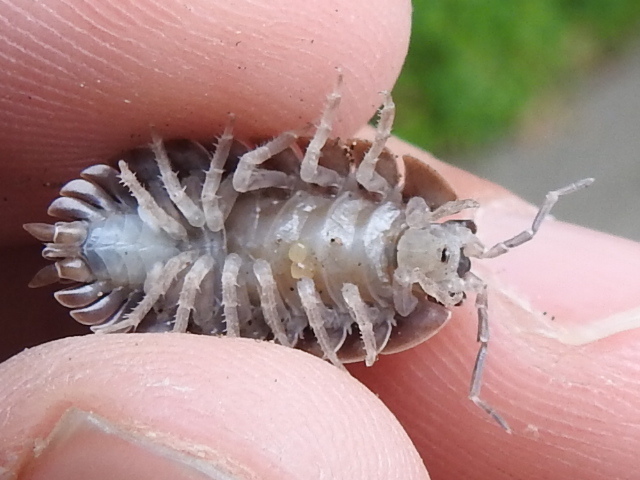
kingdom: Animalia
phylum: Arthropoda
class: Malacostraca
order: Isopoda
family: Porcellionidae
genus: Porcellio
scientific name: Porcellio dilatatus
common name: Isopod
